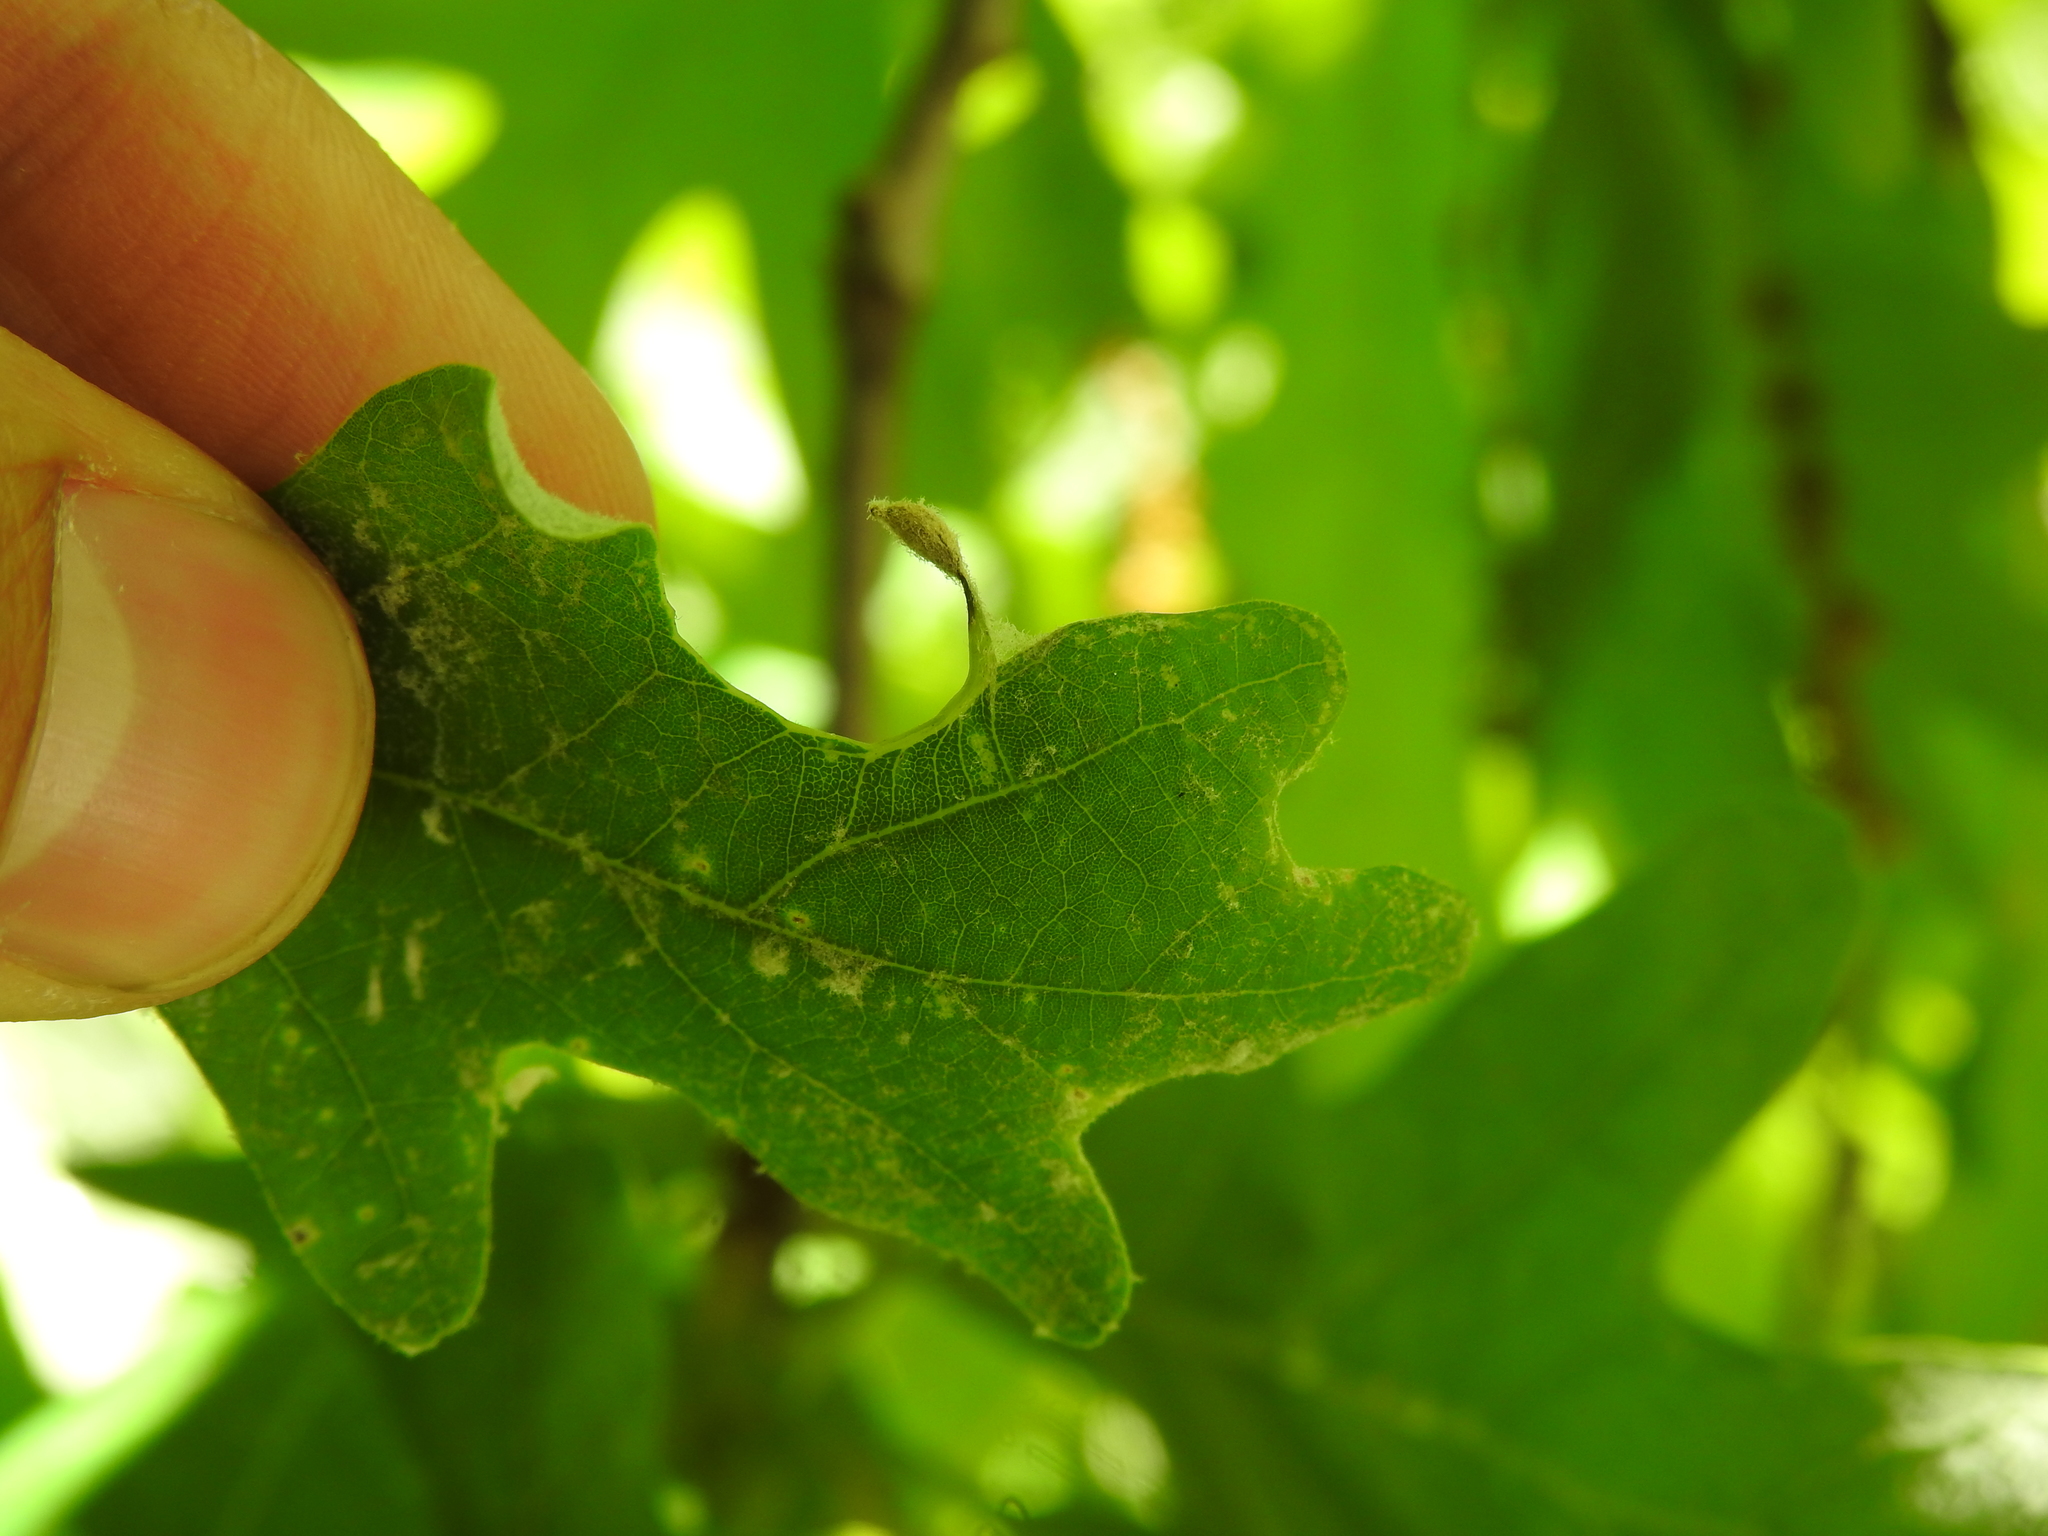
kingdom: Animalia
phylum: Arthropoda
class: Insecta
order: Hymenoptera
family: Cynipidae
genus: Andricus
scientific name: Andricus
